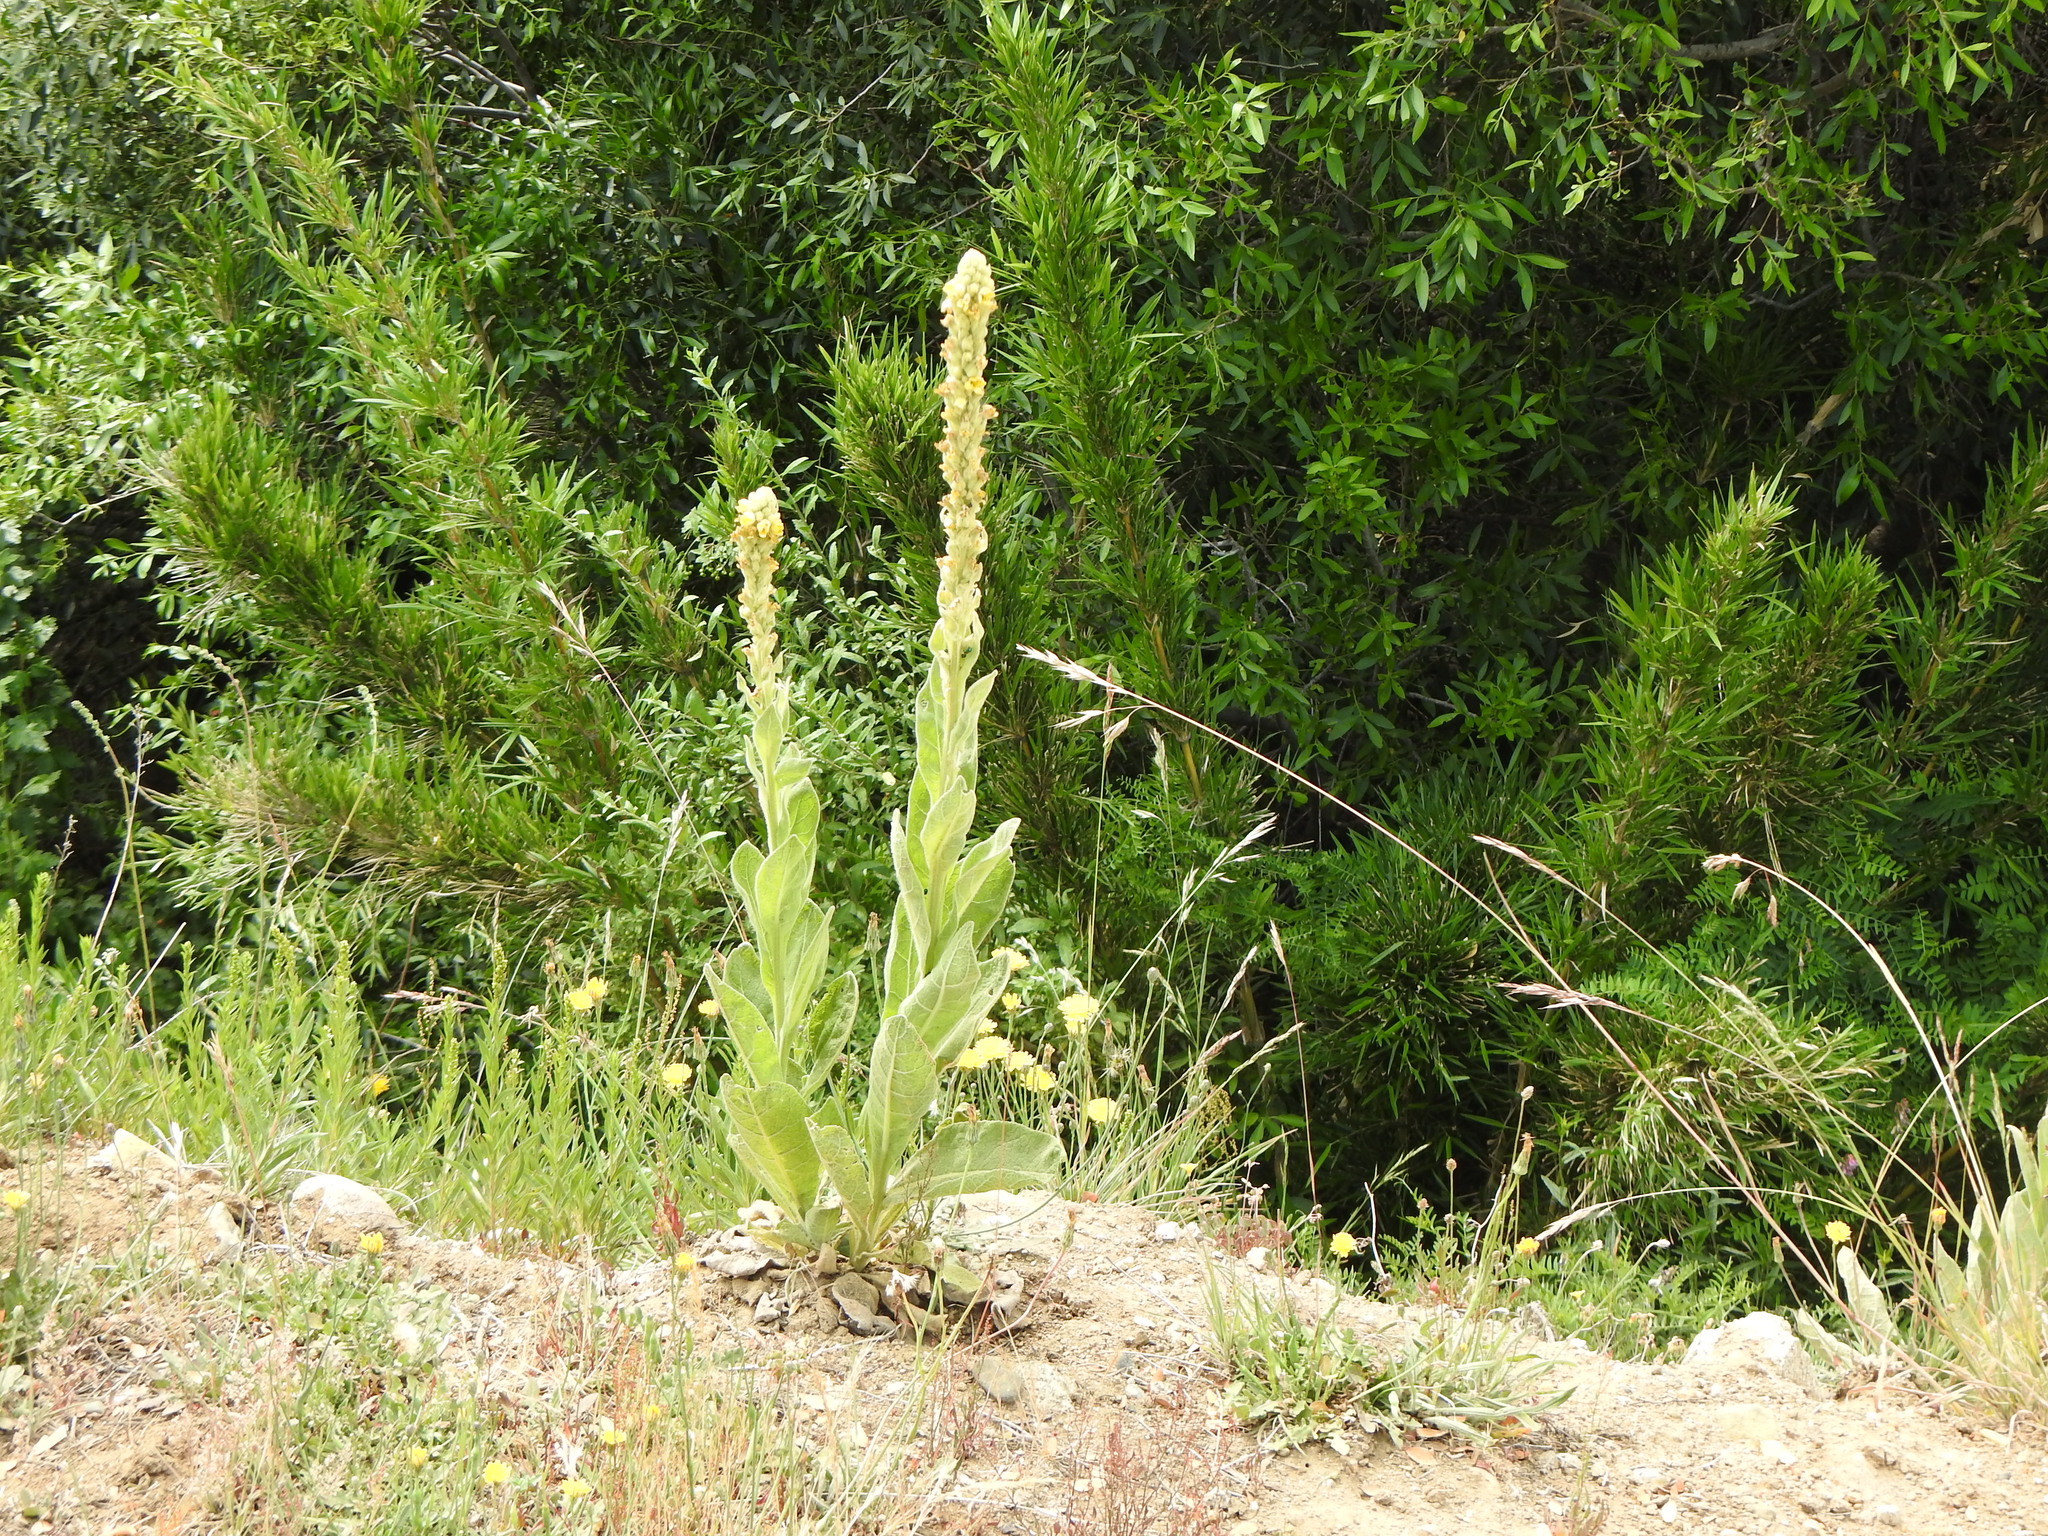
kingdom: Plantae
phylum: Tracheophyta
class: Magnoliopsida
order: Lamiales
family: Scrophulariaceae
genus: Verbascum
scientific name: Verbascum thapsus
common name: Common mullein
